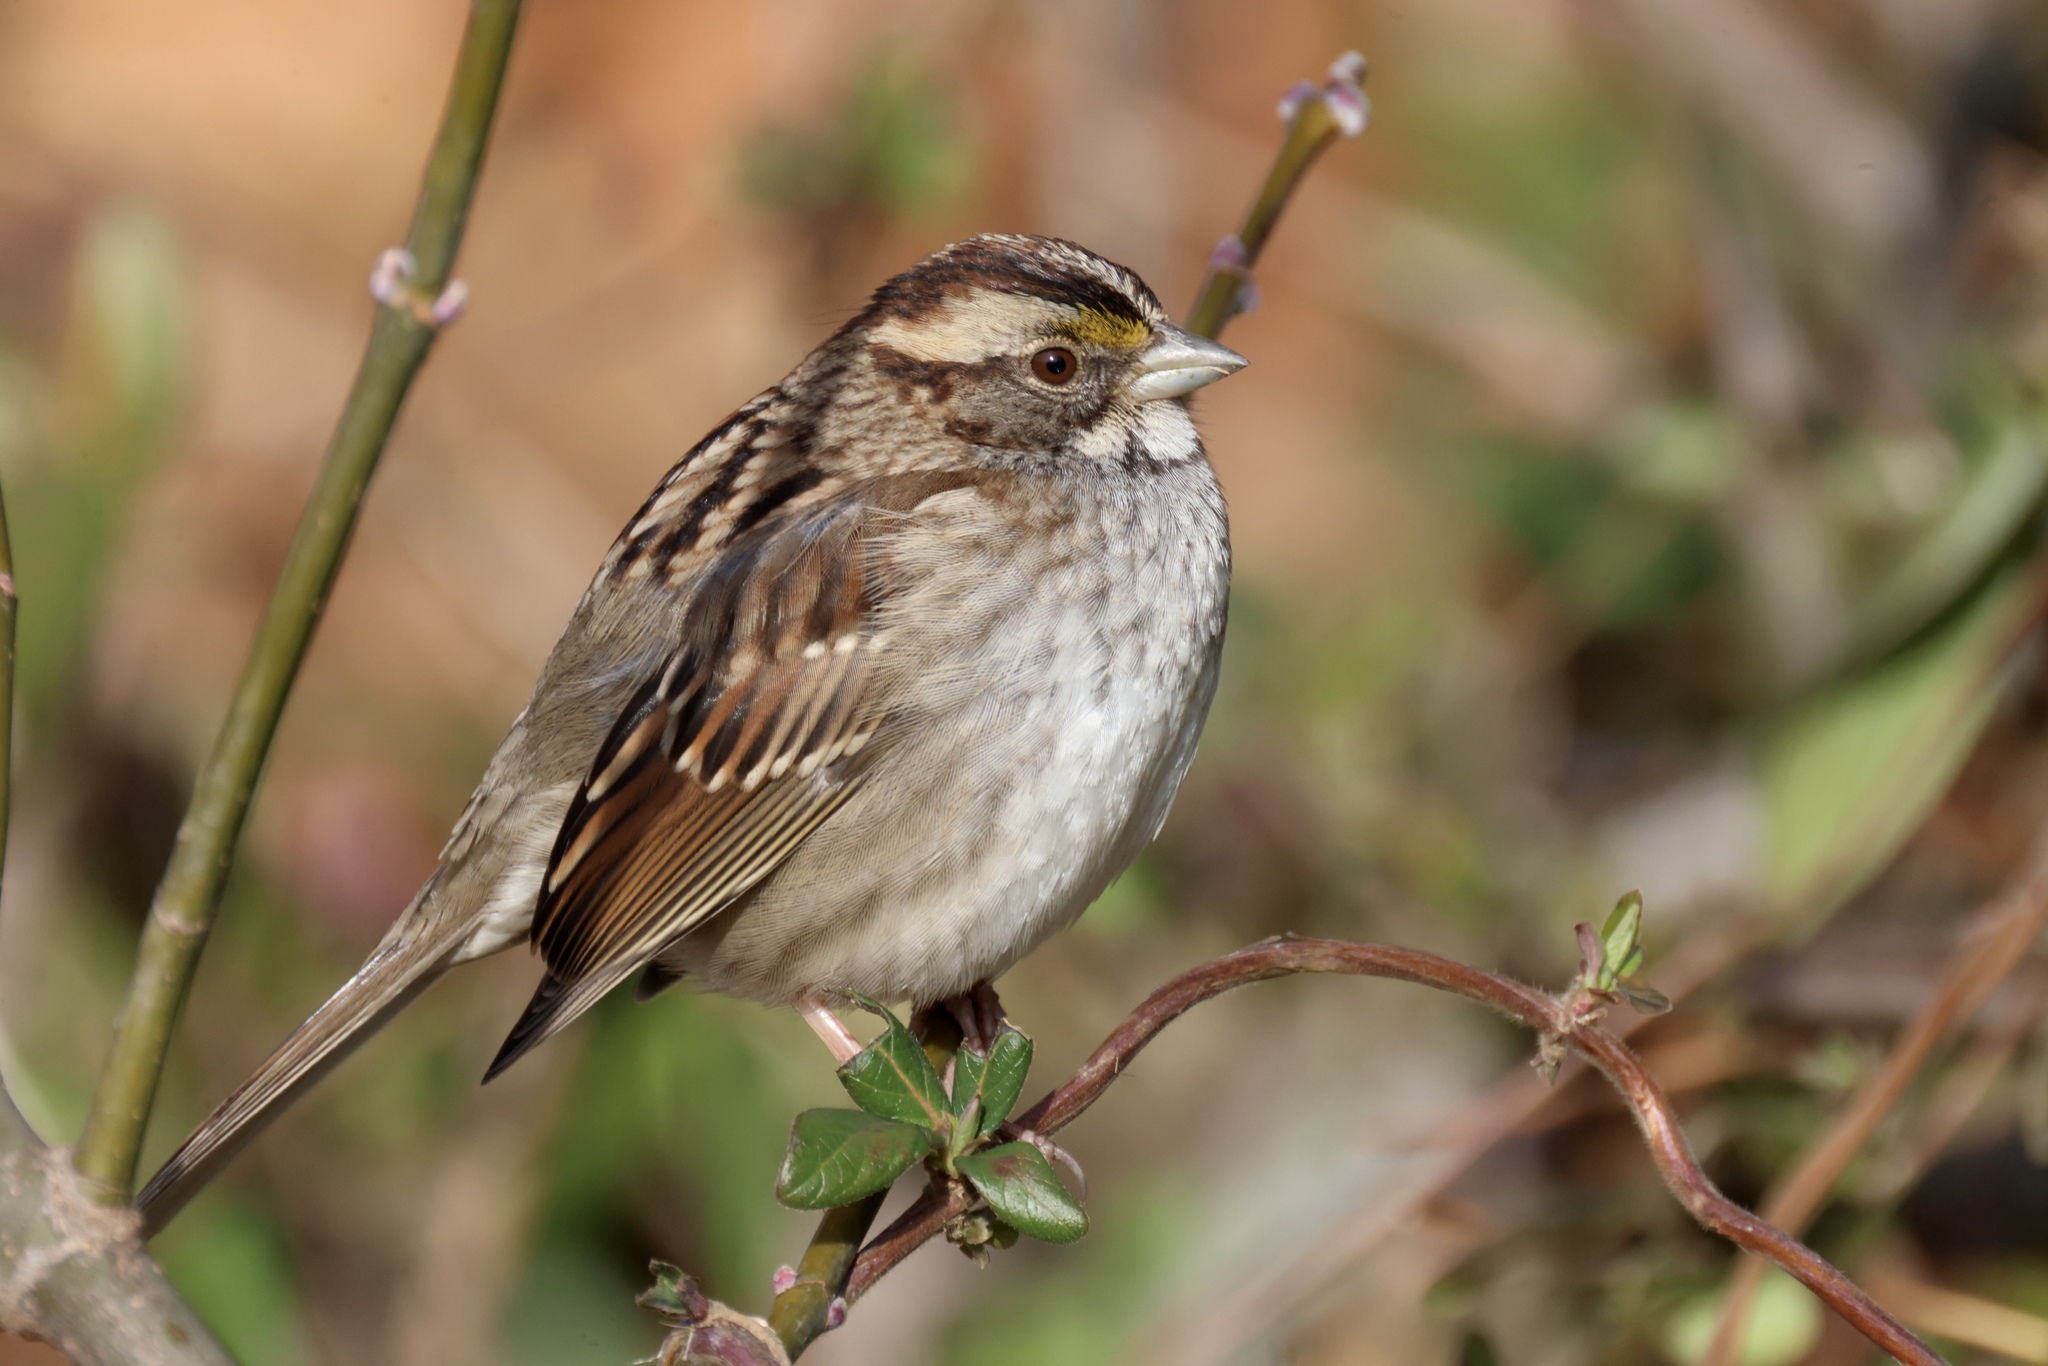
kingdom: Animalia
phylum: Chordata
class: Aves
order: Passeriformes
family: Passerellidae
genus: Zonotrichia
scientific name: Zonotrichia albicollis
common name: White-throated sparrow
